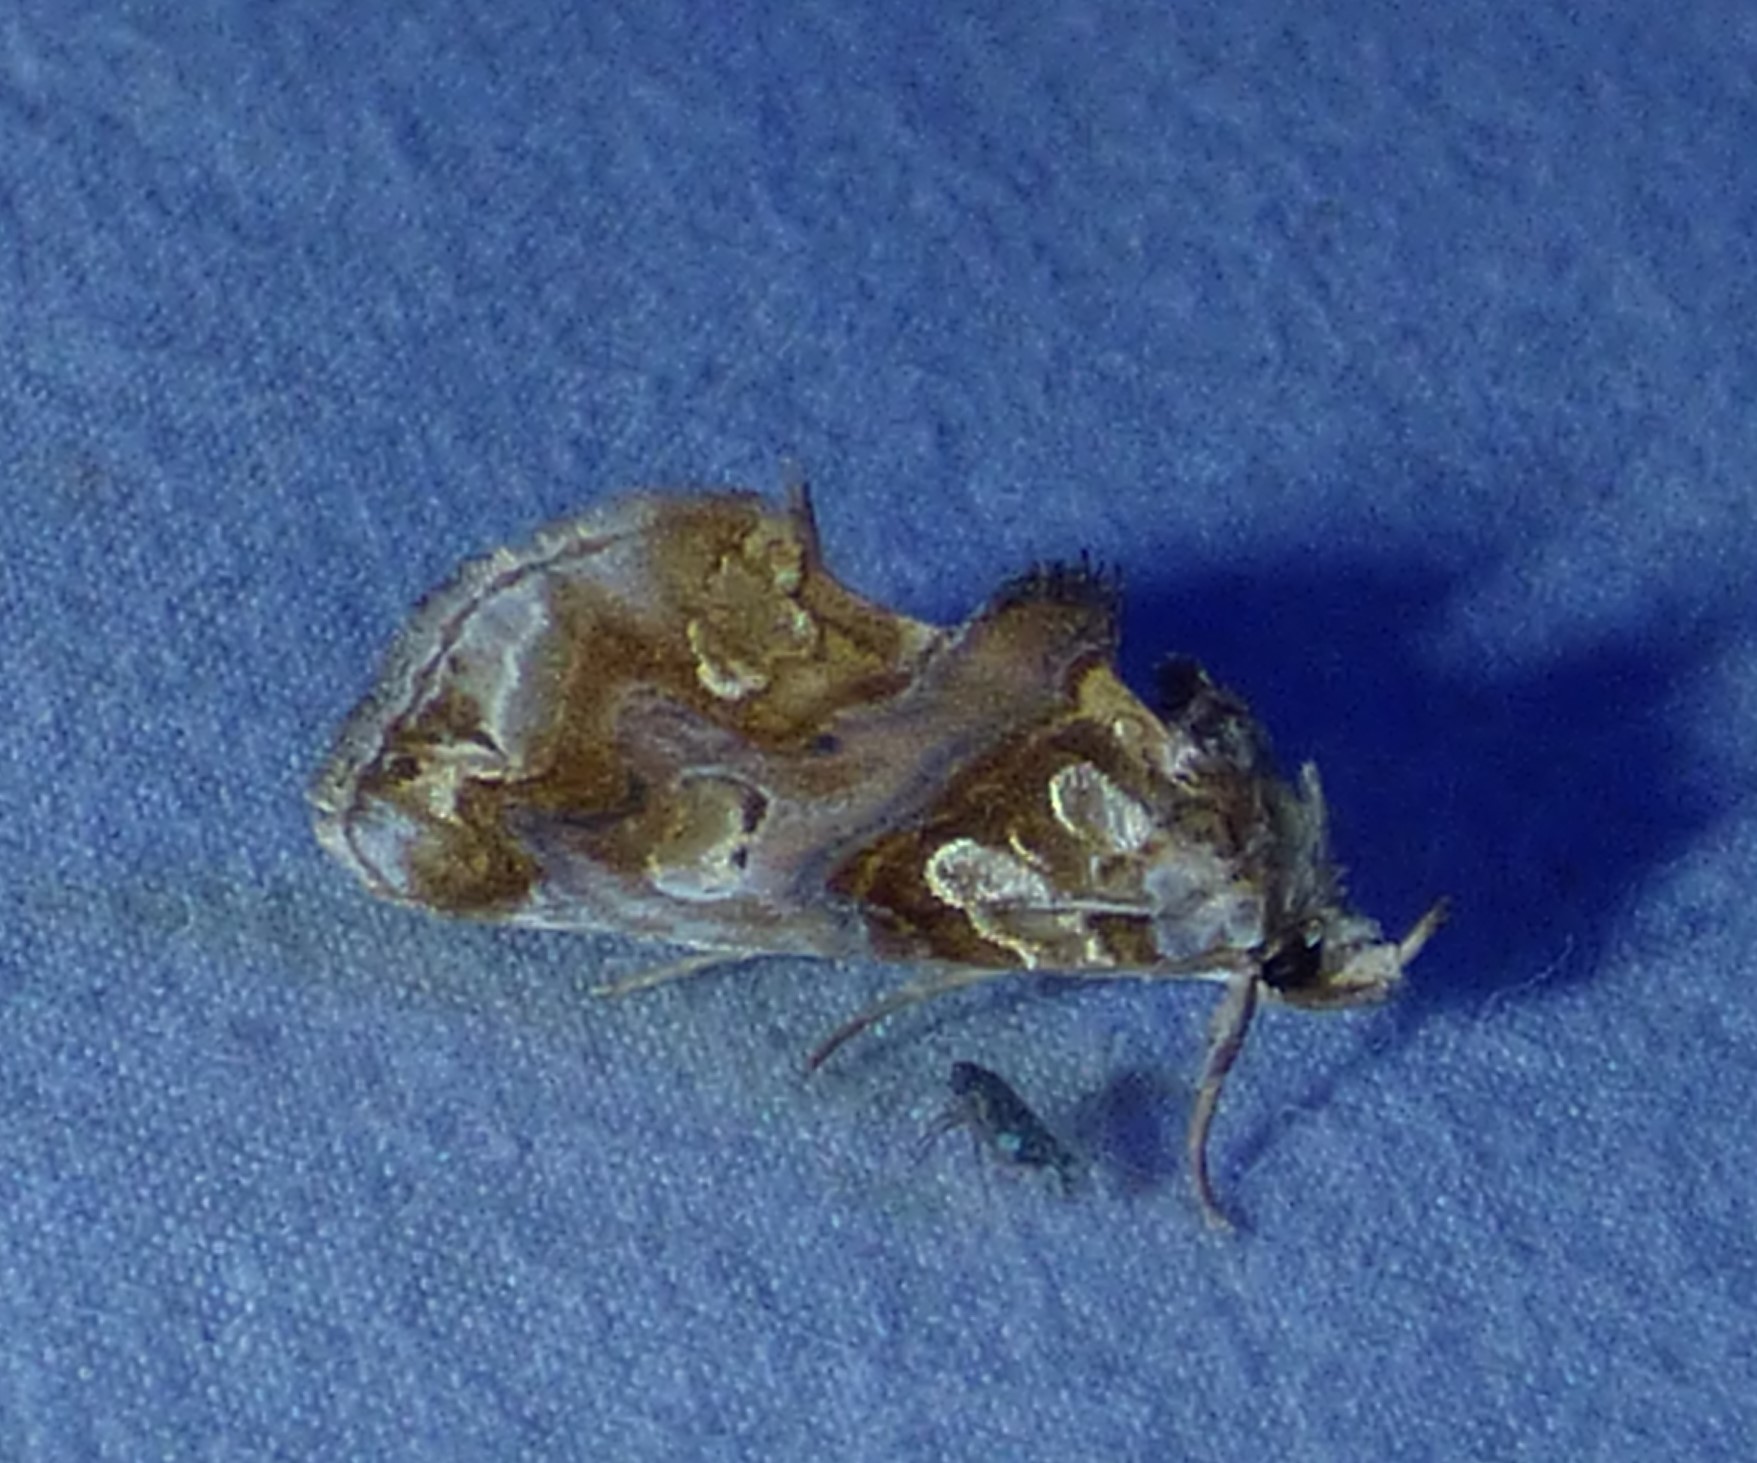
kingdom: Animalia
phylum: Arthropoda
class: Insecta
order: Lepidoptera
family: Erebidae
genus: Plusiodonta
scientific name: Plusiodonta compressipalpis
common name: Moonseed moth
